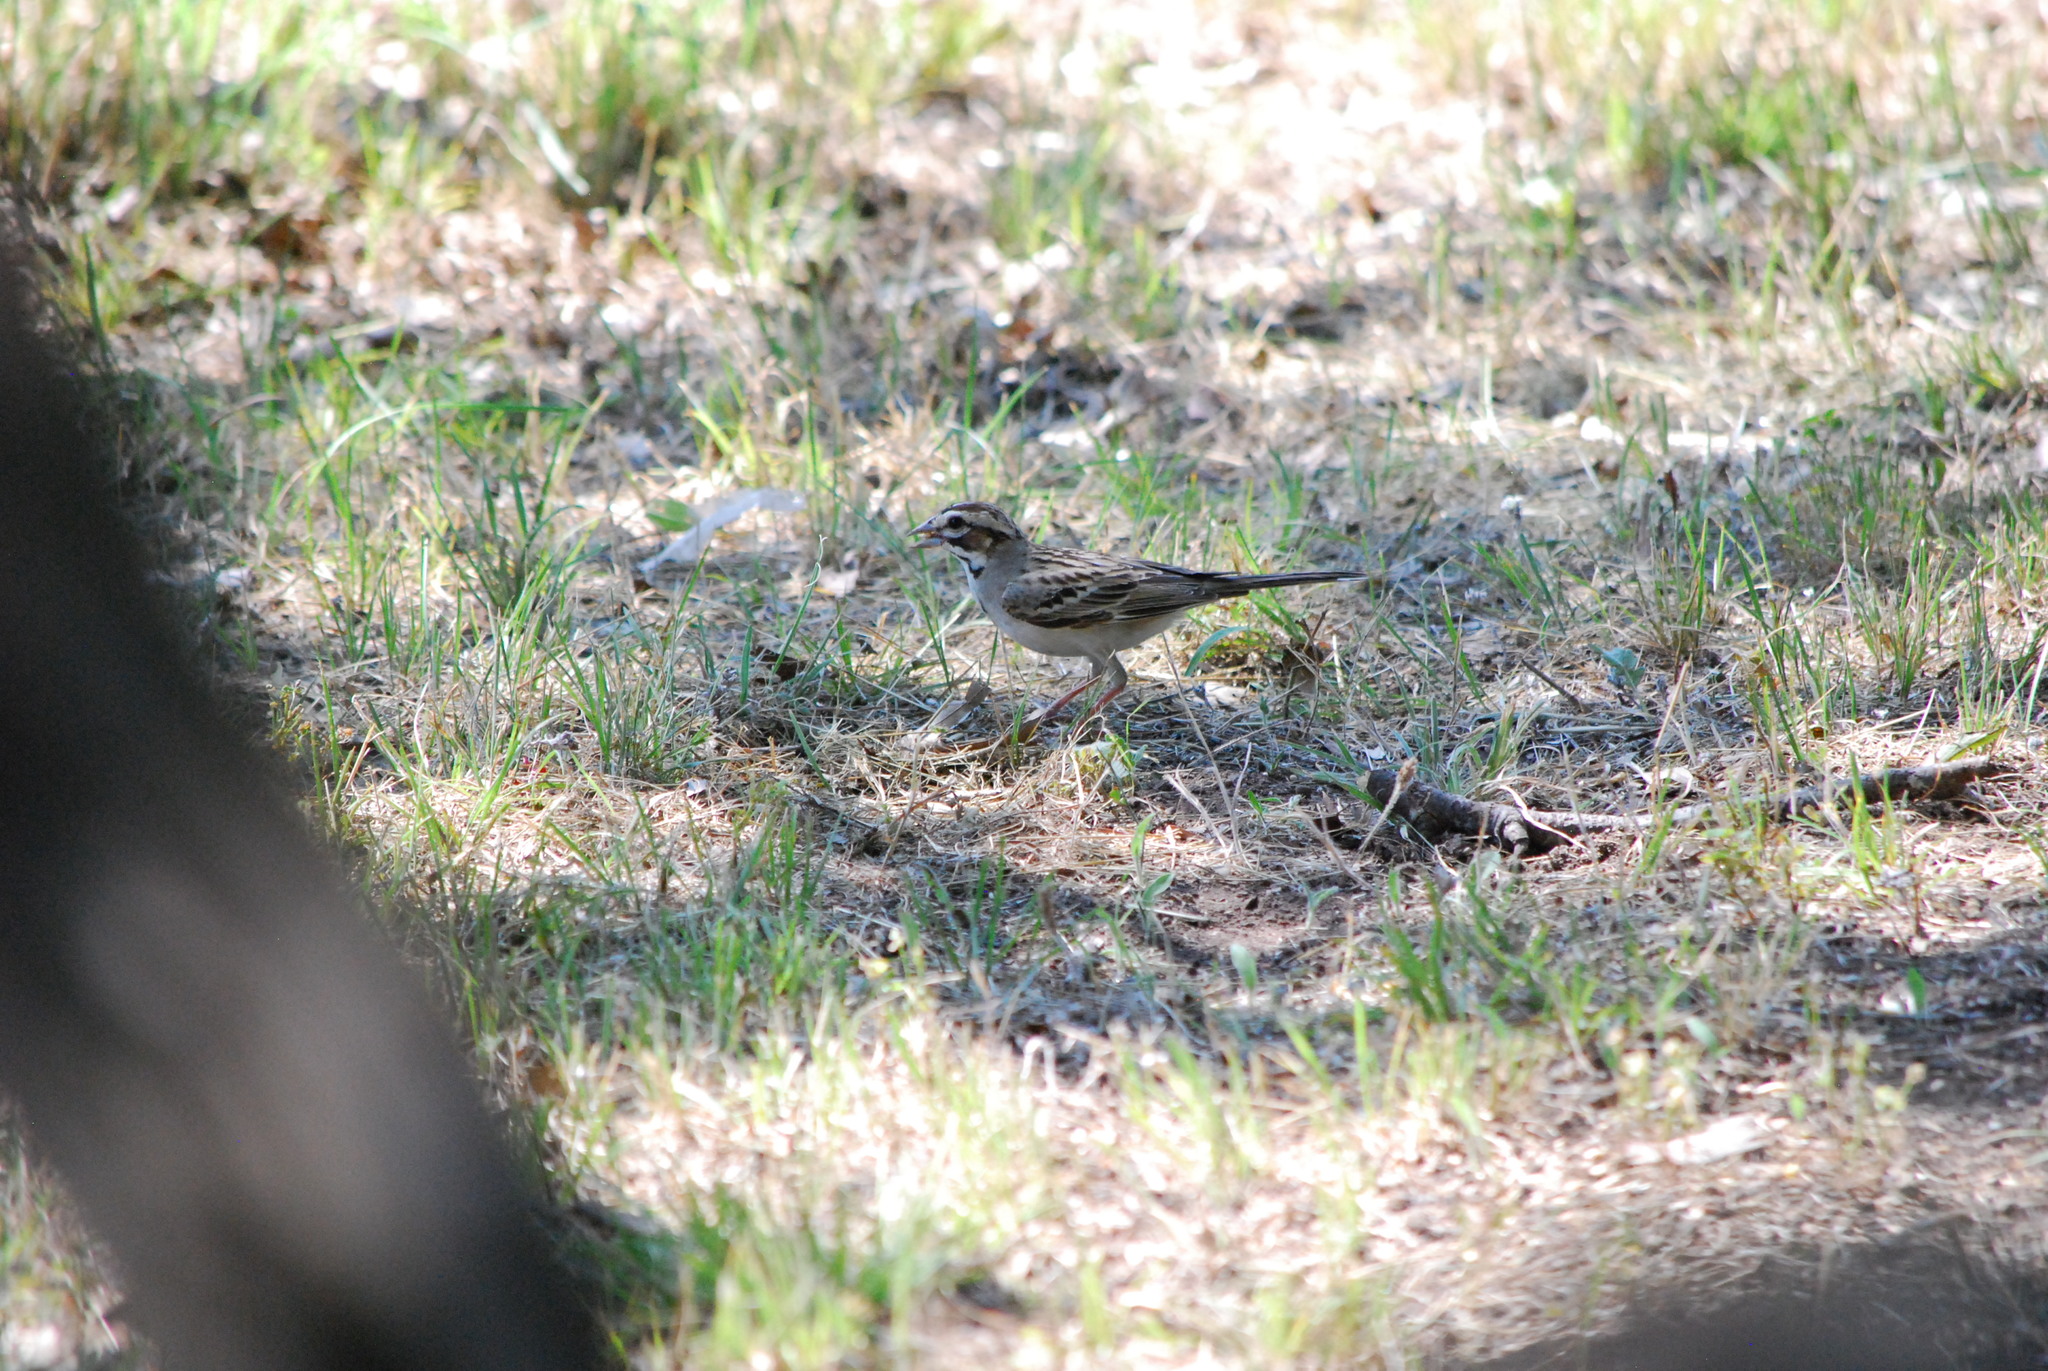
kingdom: Animalia
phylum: Chordata
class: Aves
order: Passeriformes
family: Passerellidae
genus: Chondestes
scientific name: Chondestes grammacus
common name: Lark sparrow
